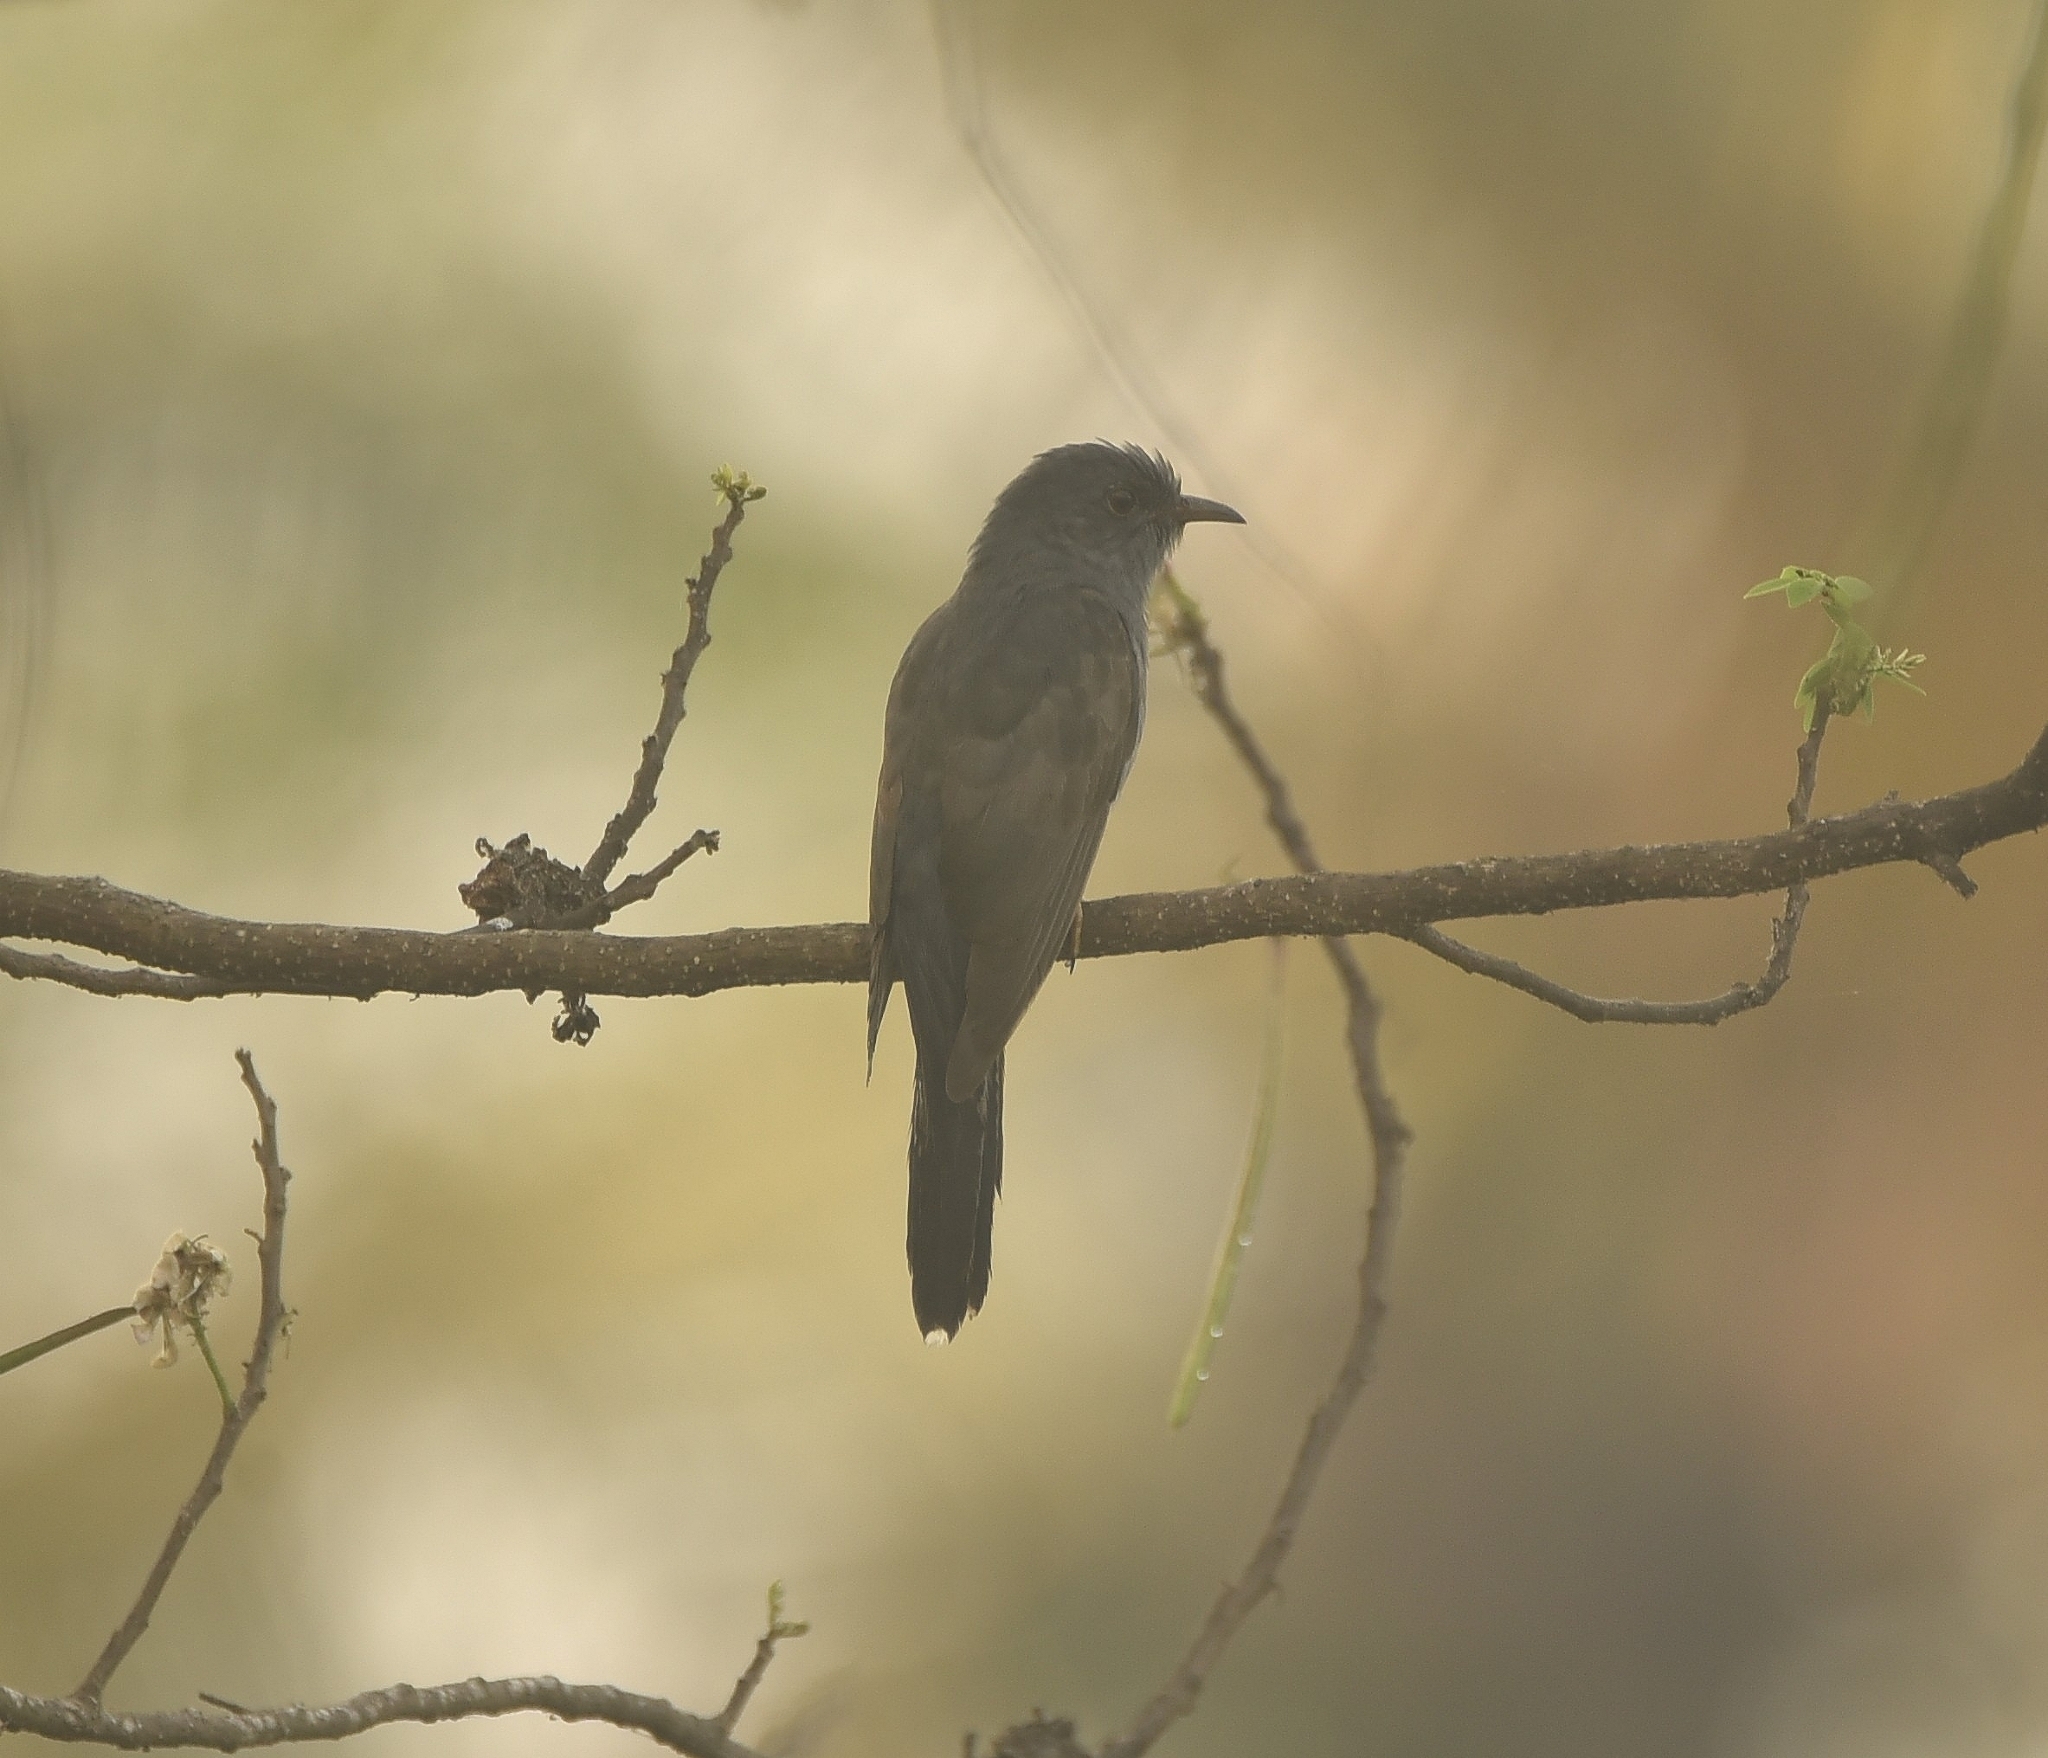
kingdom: Animalia
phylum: Chordata
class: Aves
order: Cuculiformes
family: Cuculidae
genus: Cacomantis
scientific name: Cacomantis passerinus
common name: Grey-bellied cuckoo
